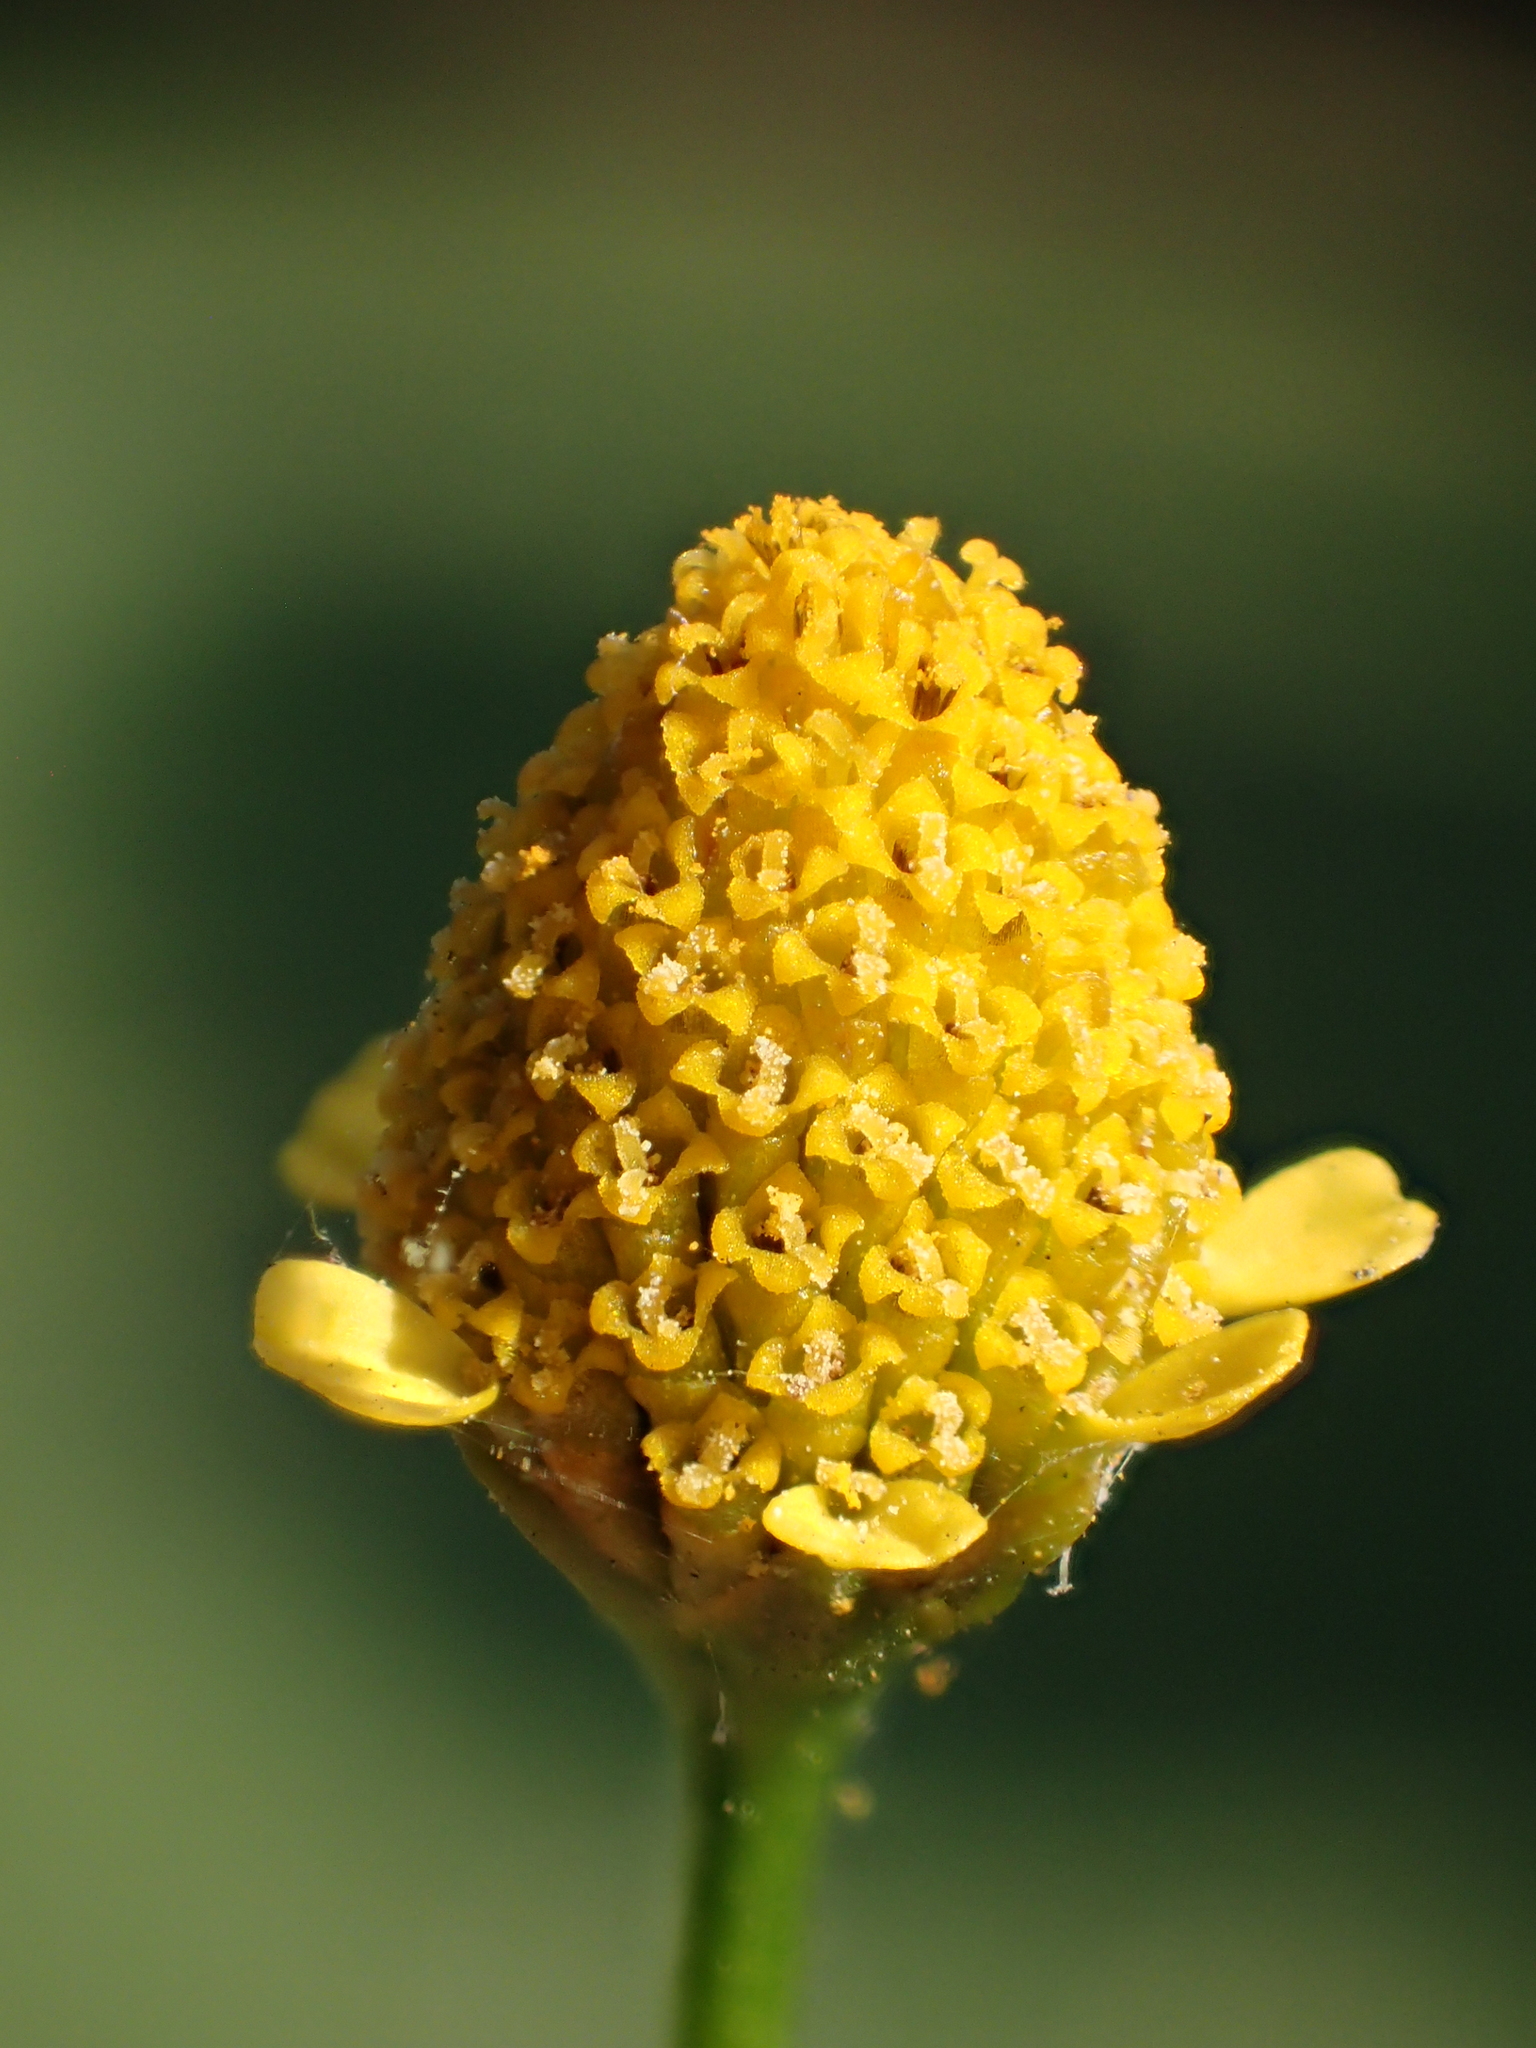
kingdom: Plantae
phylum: Tracheophyta
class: Magnoliopsida
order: Asterales
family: Asteraceae
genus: Acmella
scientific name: Acmella uliginosa
